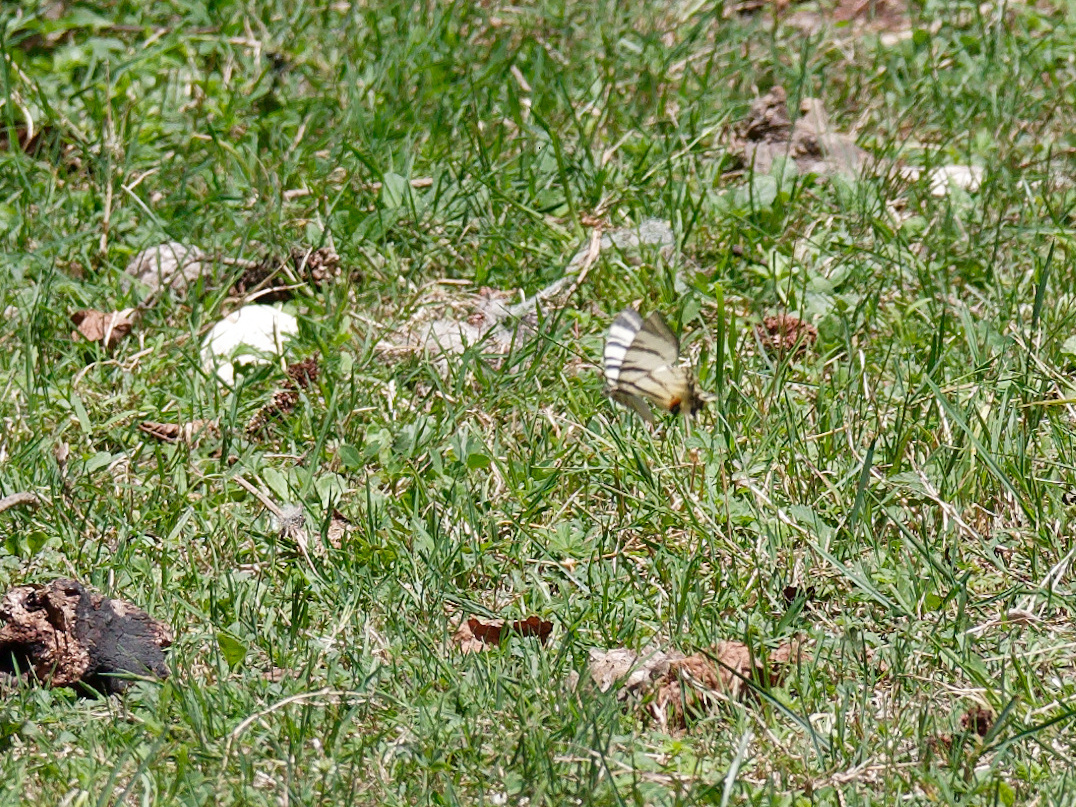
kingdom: Animalia
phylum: Arthropoda
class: Insecta
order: Lepidoptera
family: Papilionidae
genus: Iphiclides
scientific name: Iphiclides podalirius
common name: Scarce swallowtail
